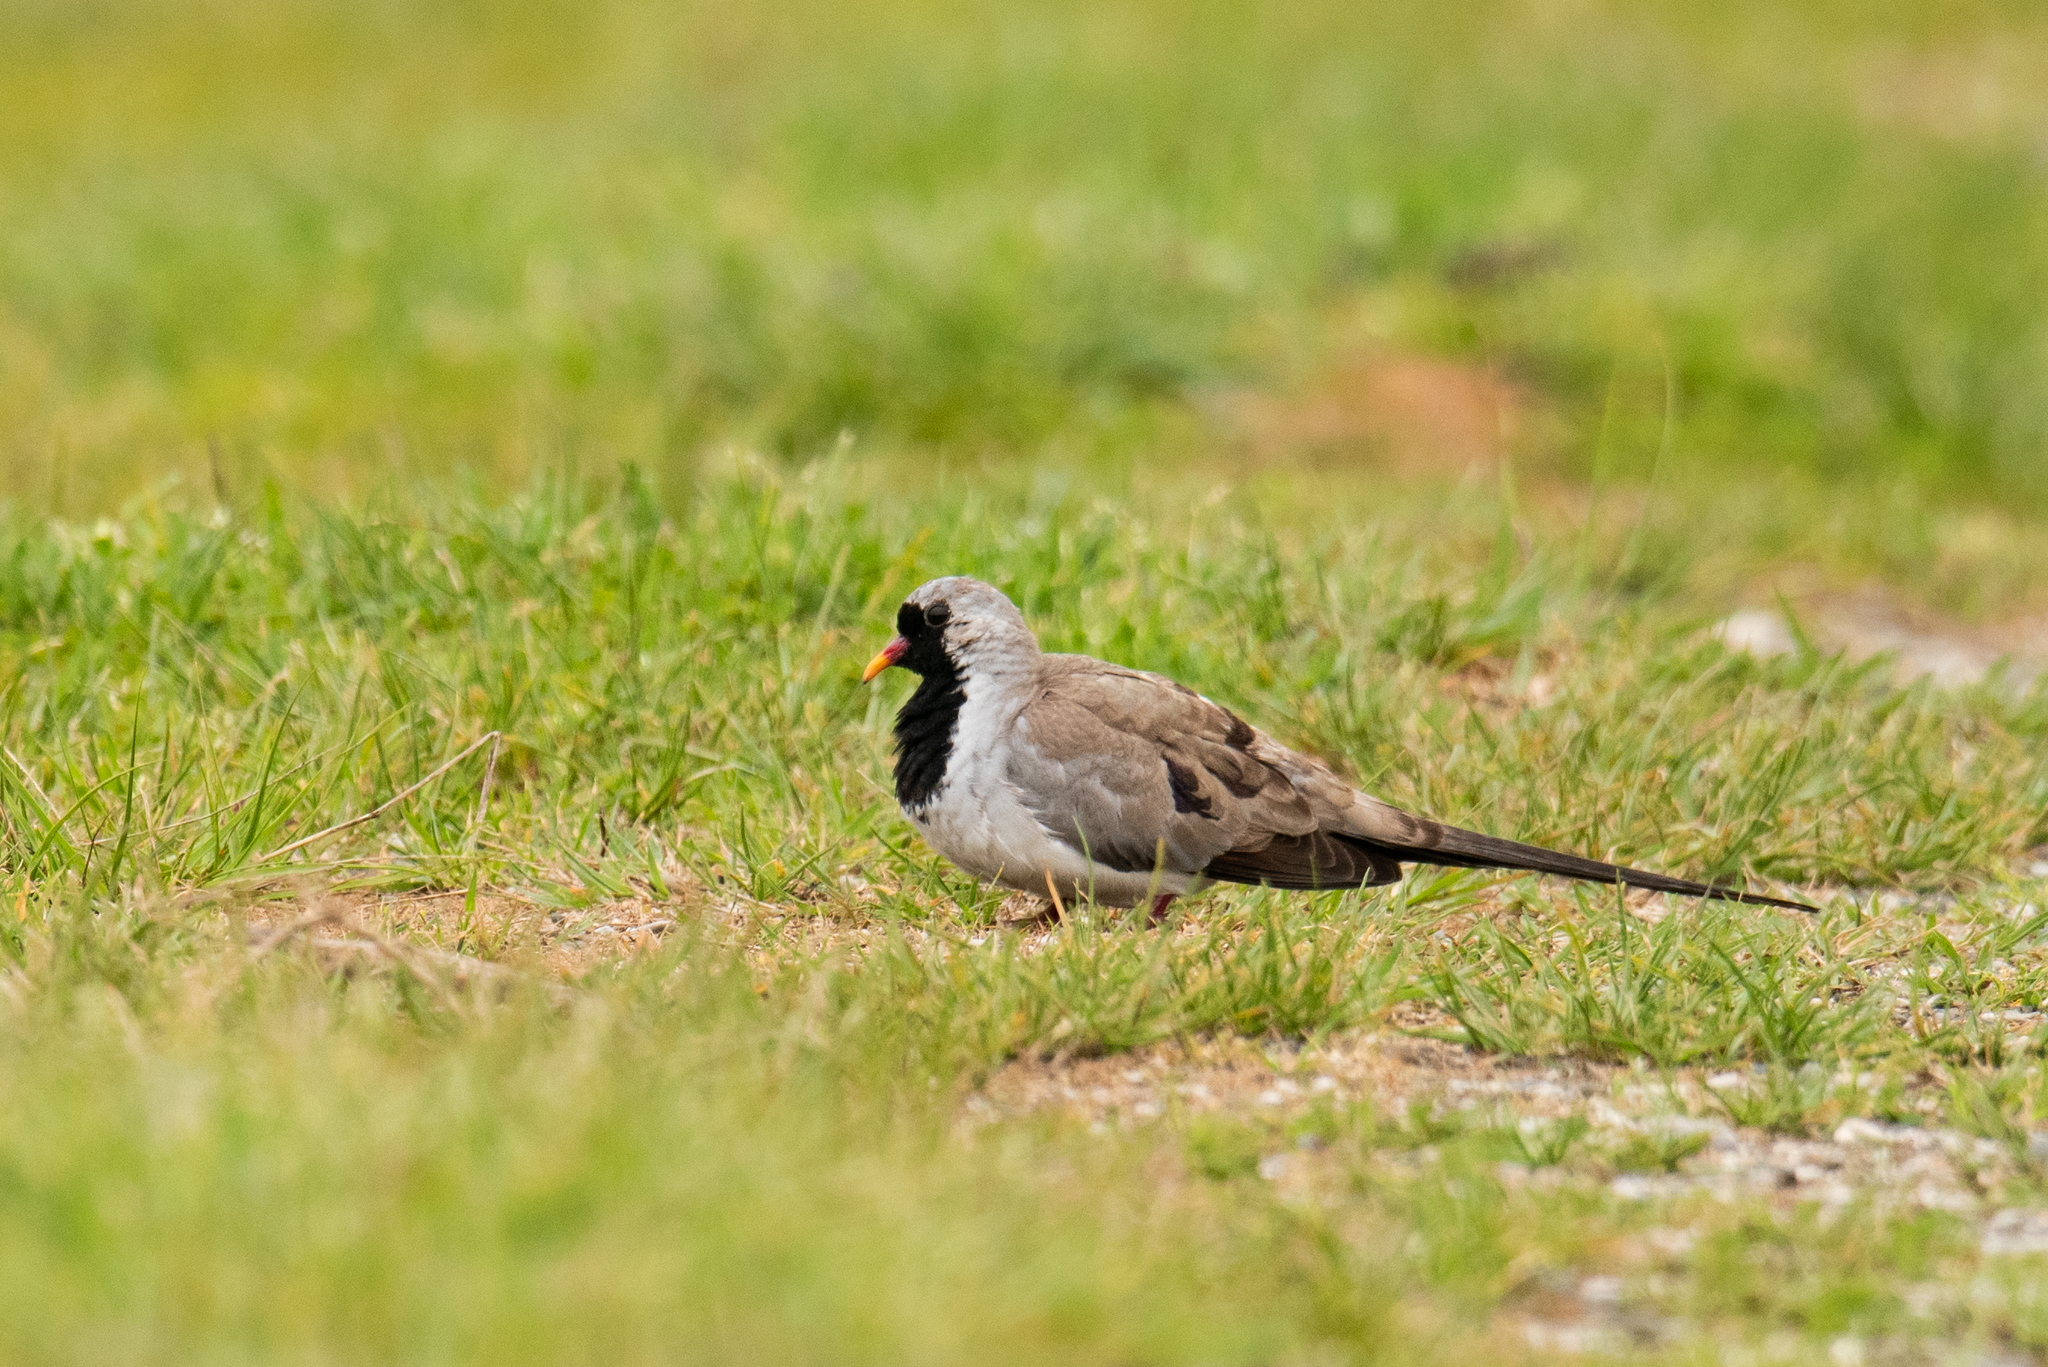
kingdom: Animalia
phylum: Chordata
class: Aves
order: Columbiformes
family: Columbidae
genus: Oena
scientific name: Oena capensis
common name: Namaqua dove
